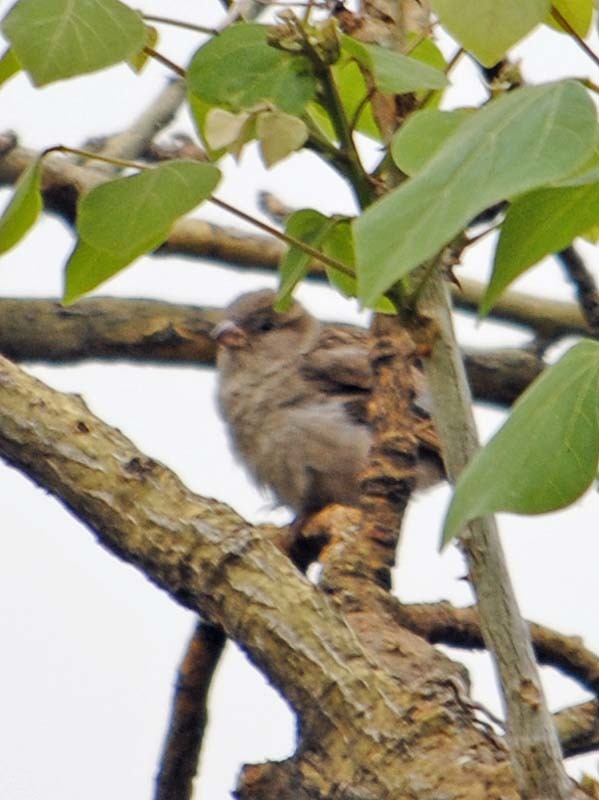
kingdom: Animalia
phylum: Chordata
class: Aves
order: Passeriformes
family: Passeridae
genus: Passer
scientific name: Passer domesticus
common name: House sparrow
